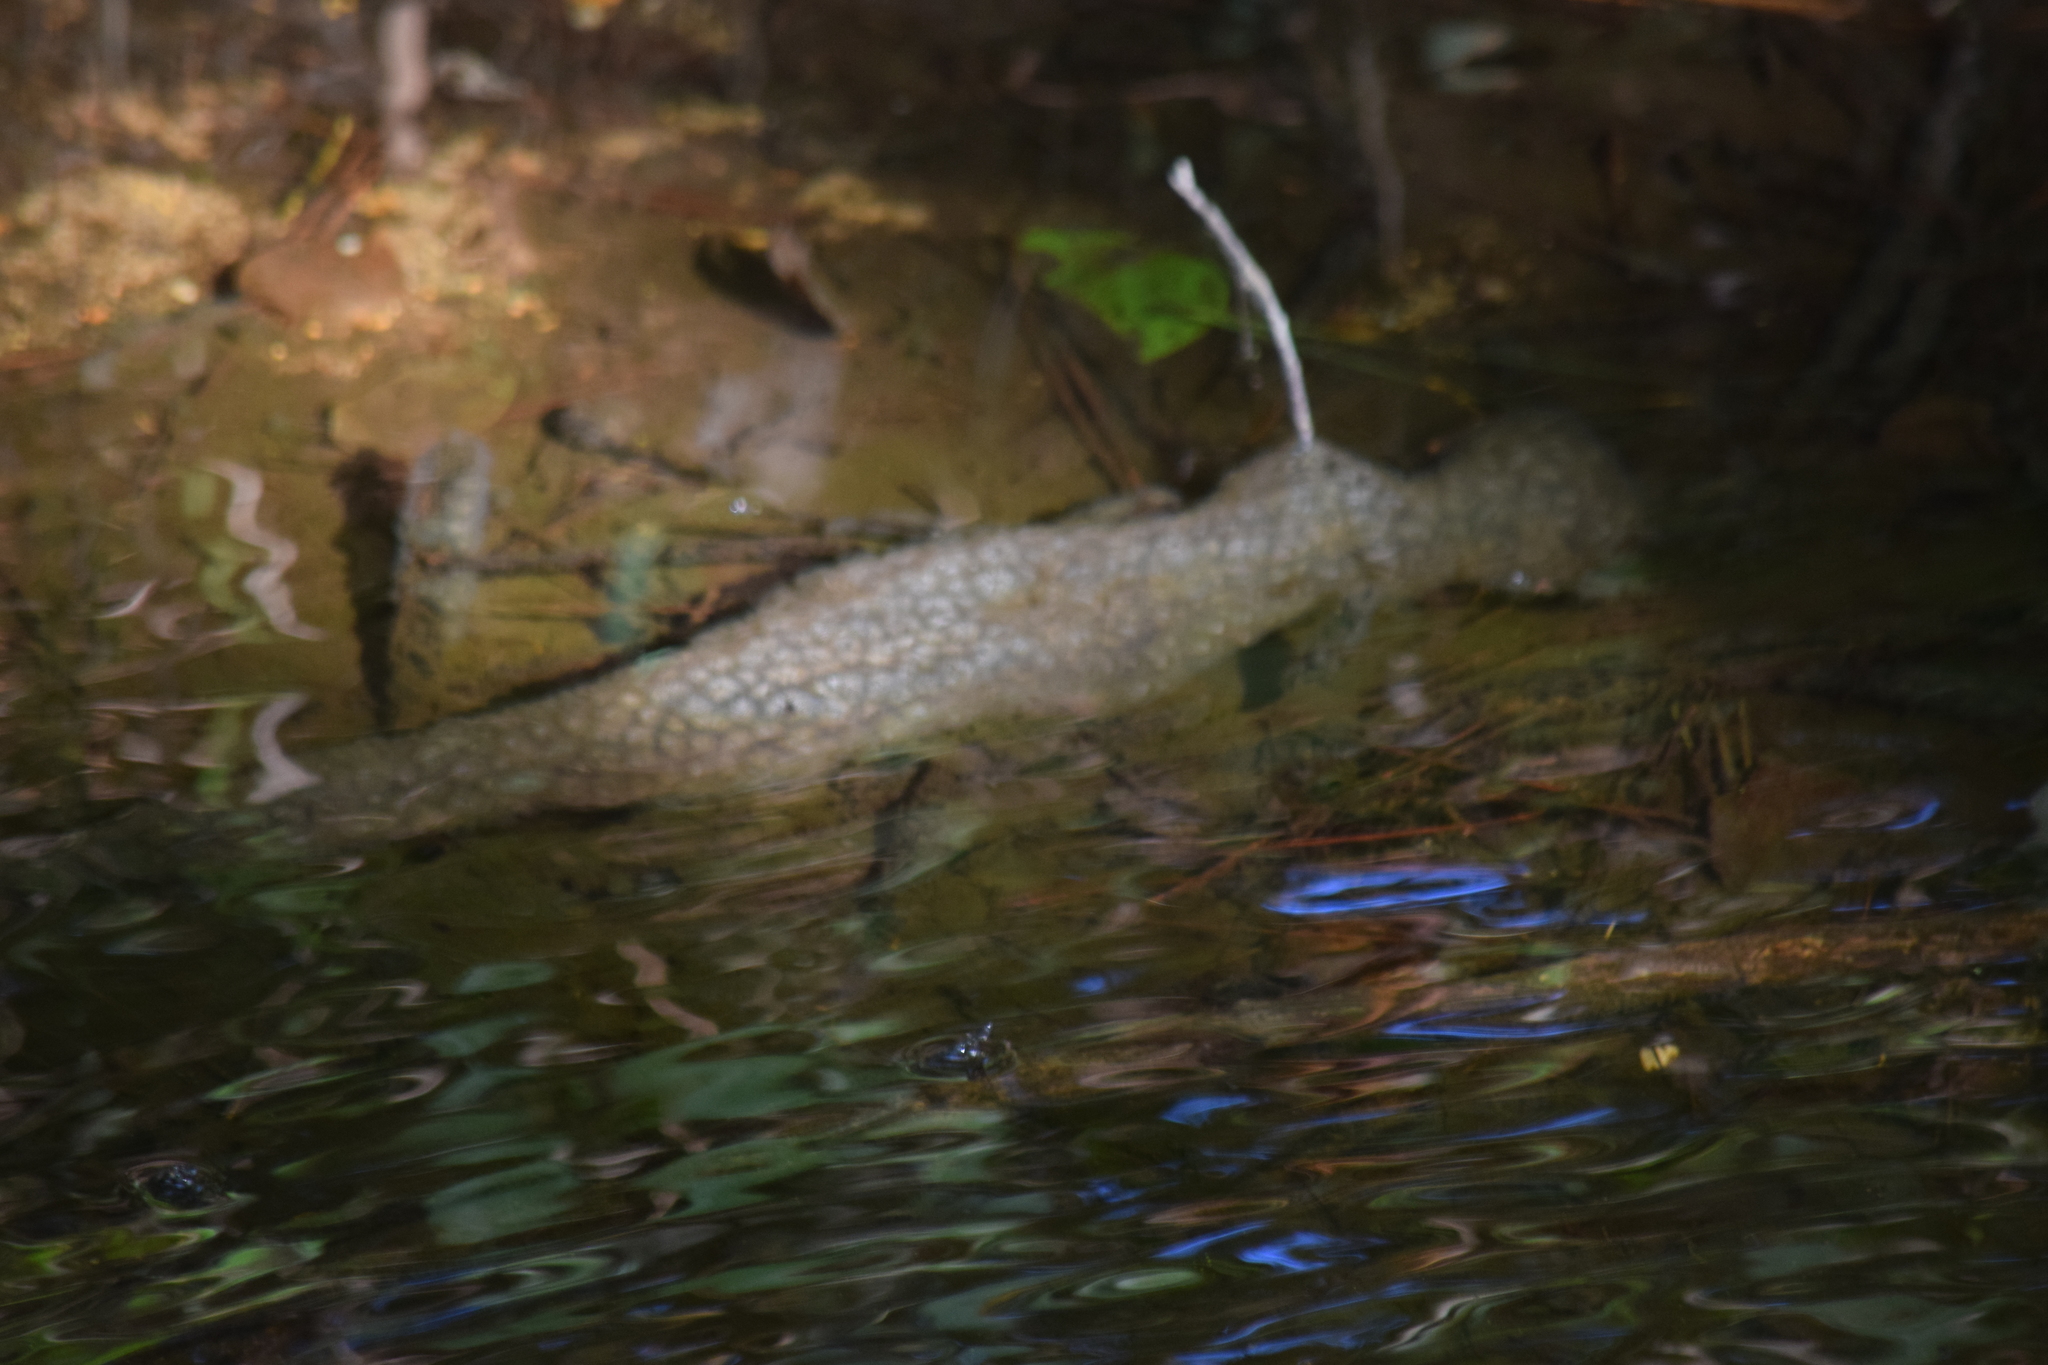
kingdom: Animalia
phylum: Bryozoa
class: Phylactolaemata
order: Plumatellida
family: Pectinatellidae
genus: Pectinatella
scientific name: Pectinatella magnifica
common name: Magnificent bryozoan
